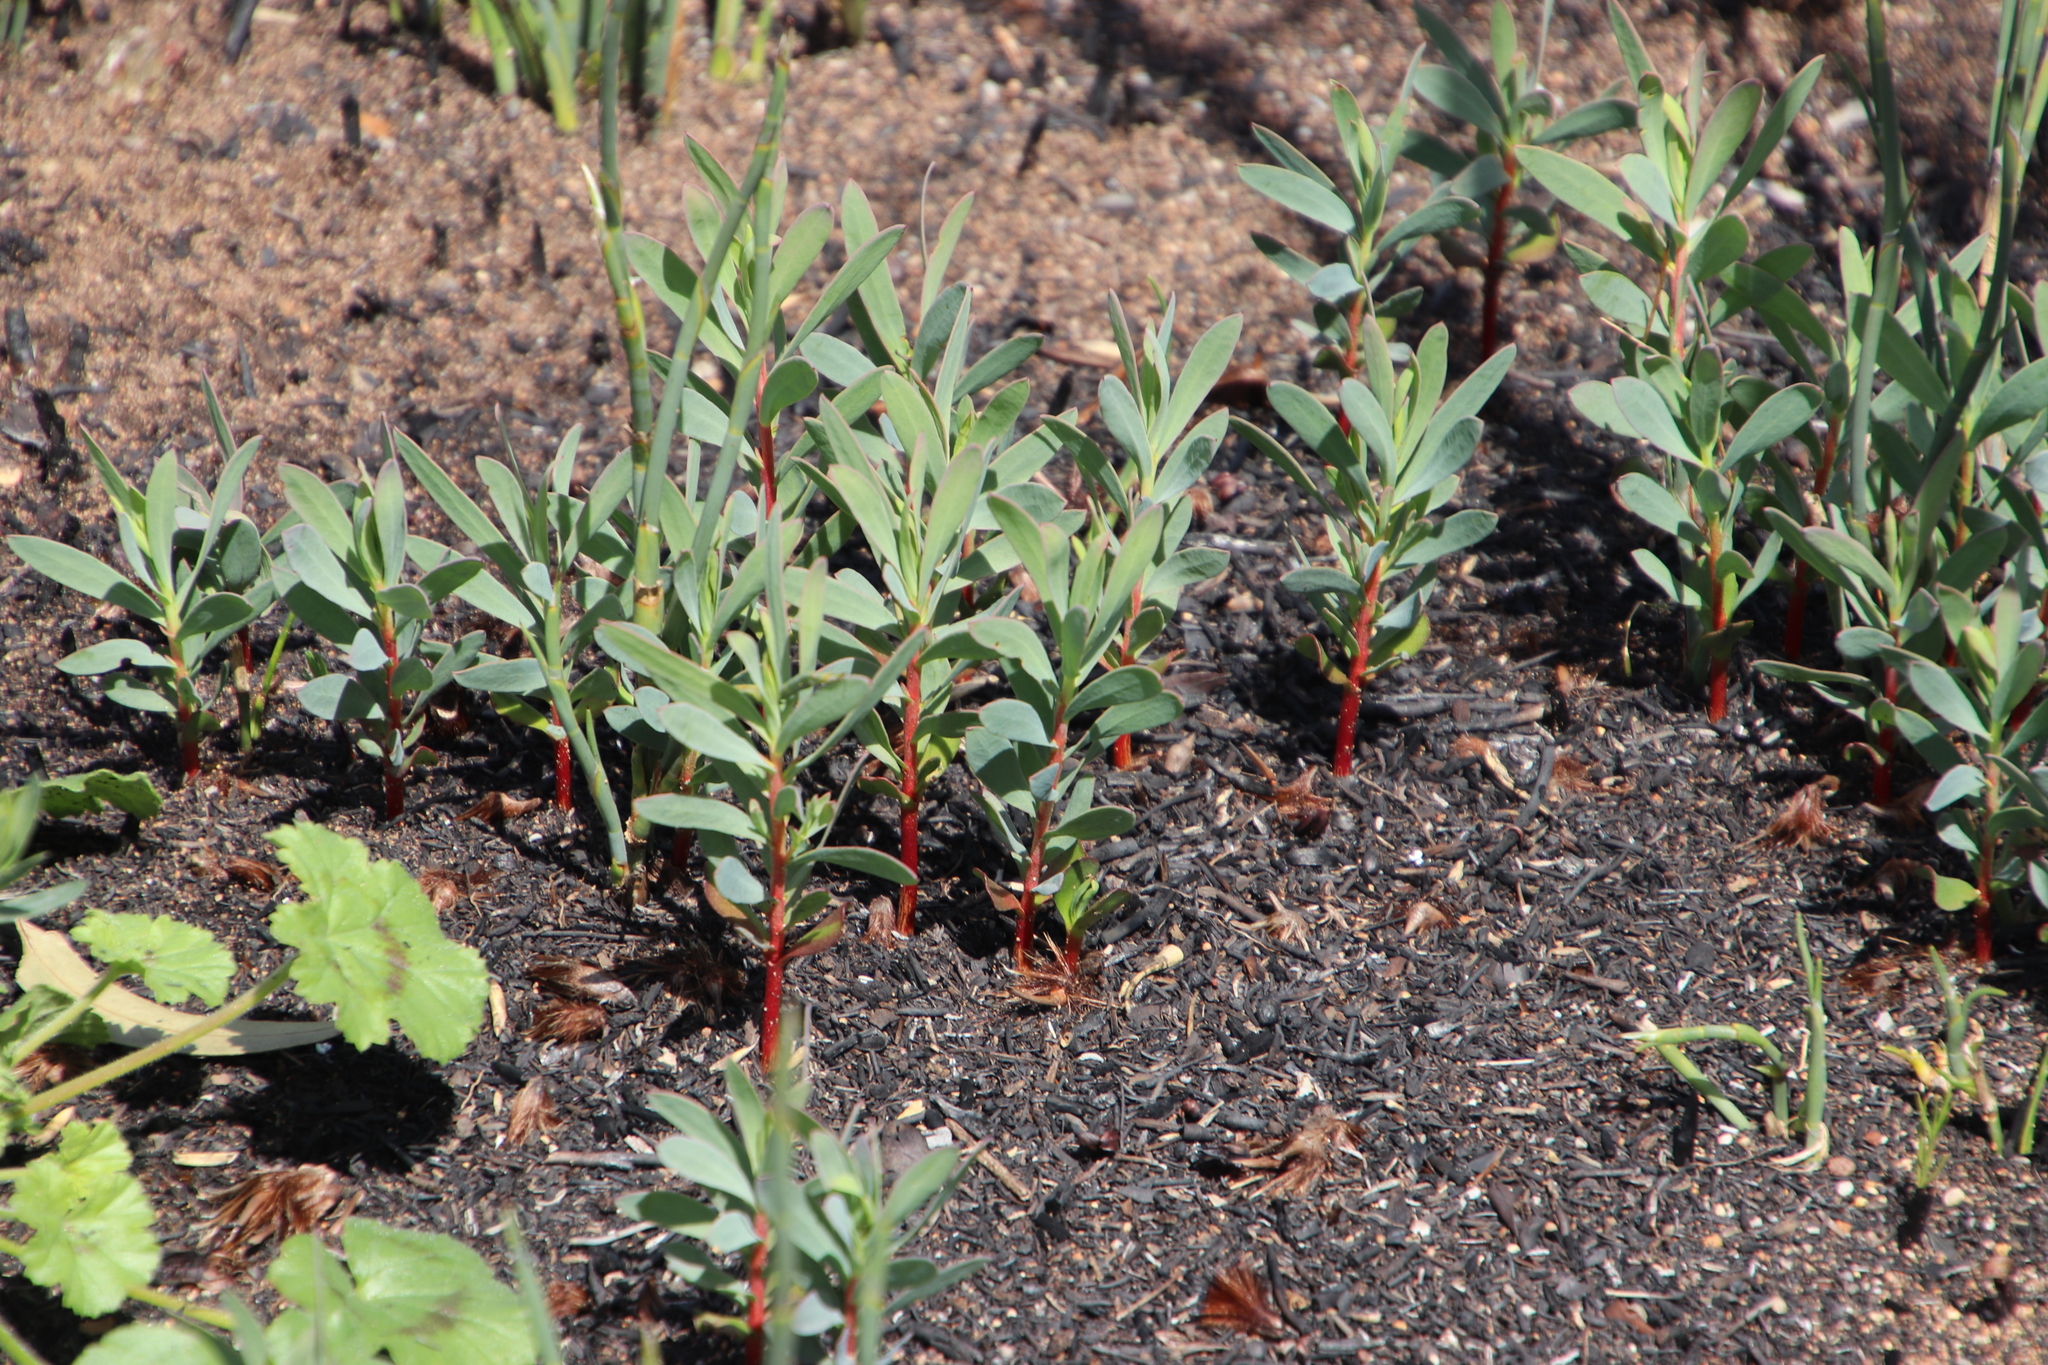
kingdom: Plantae
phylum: Tracheophyta
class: Magnoliopsida
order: Proteales
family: Proteaceae
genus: Protea
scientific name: Protea repens
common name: Sugarbush
